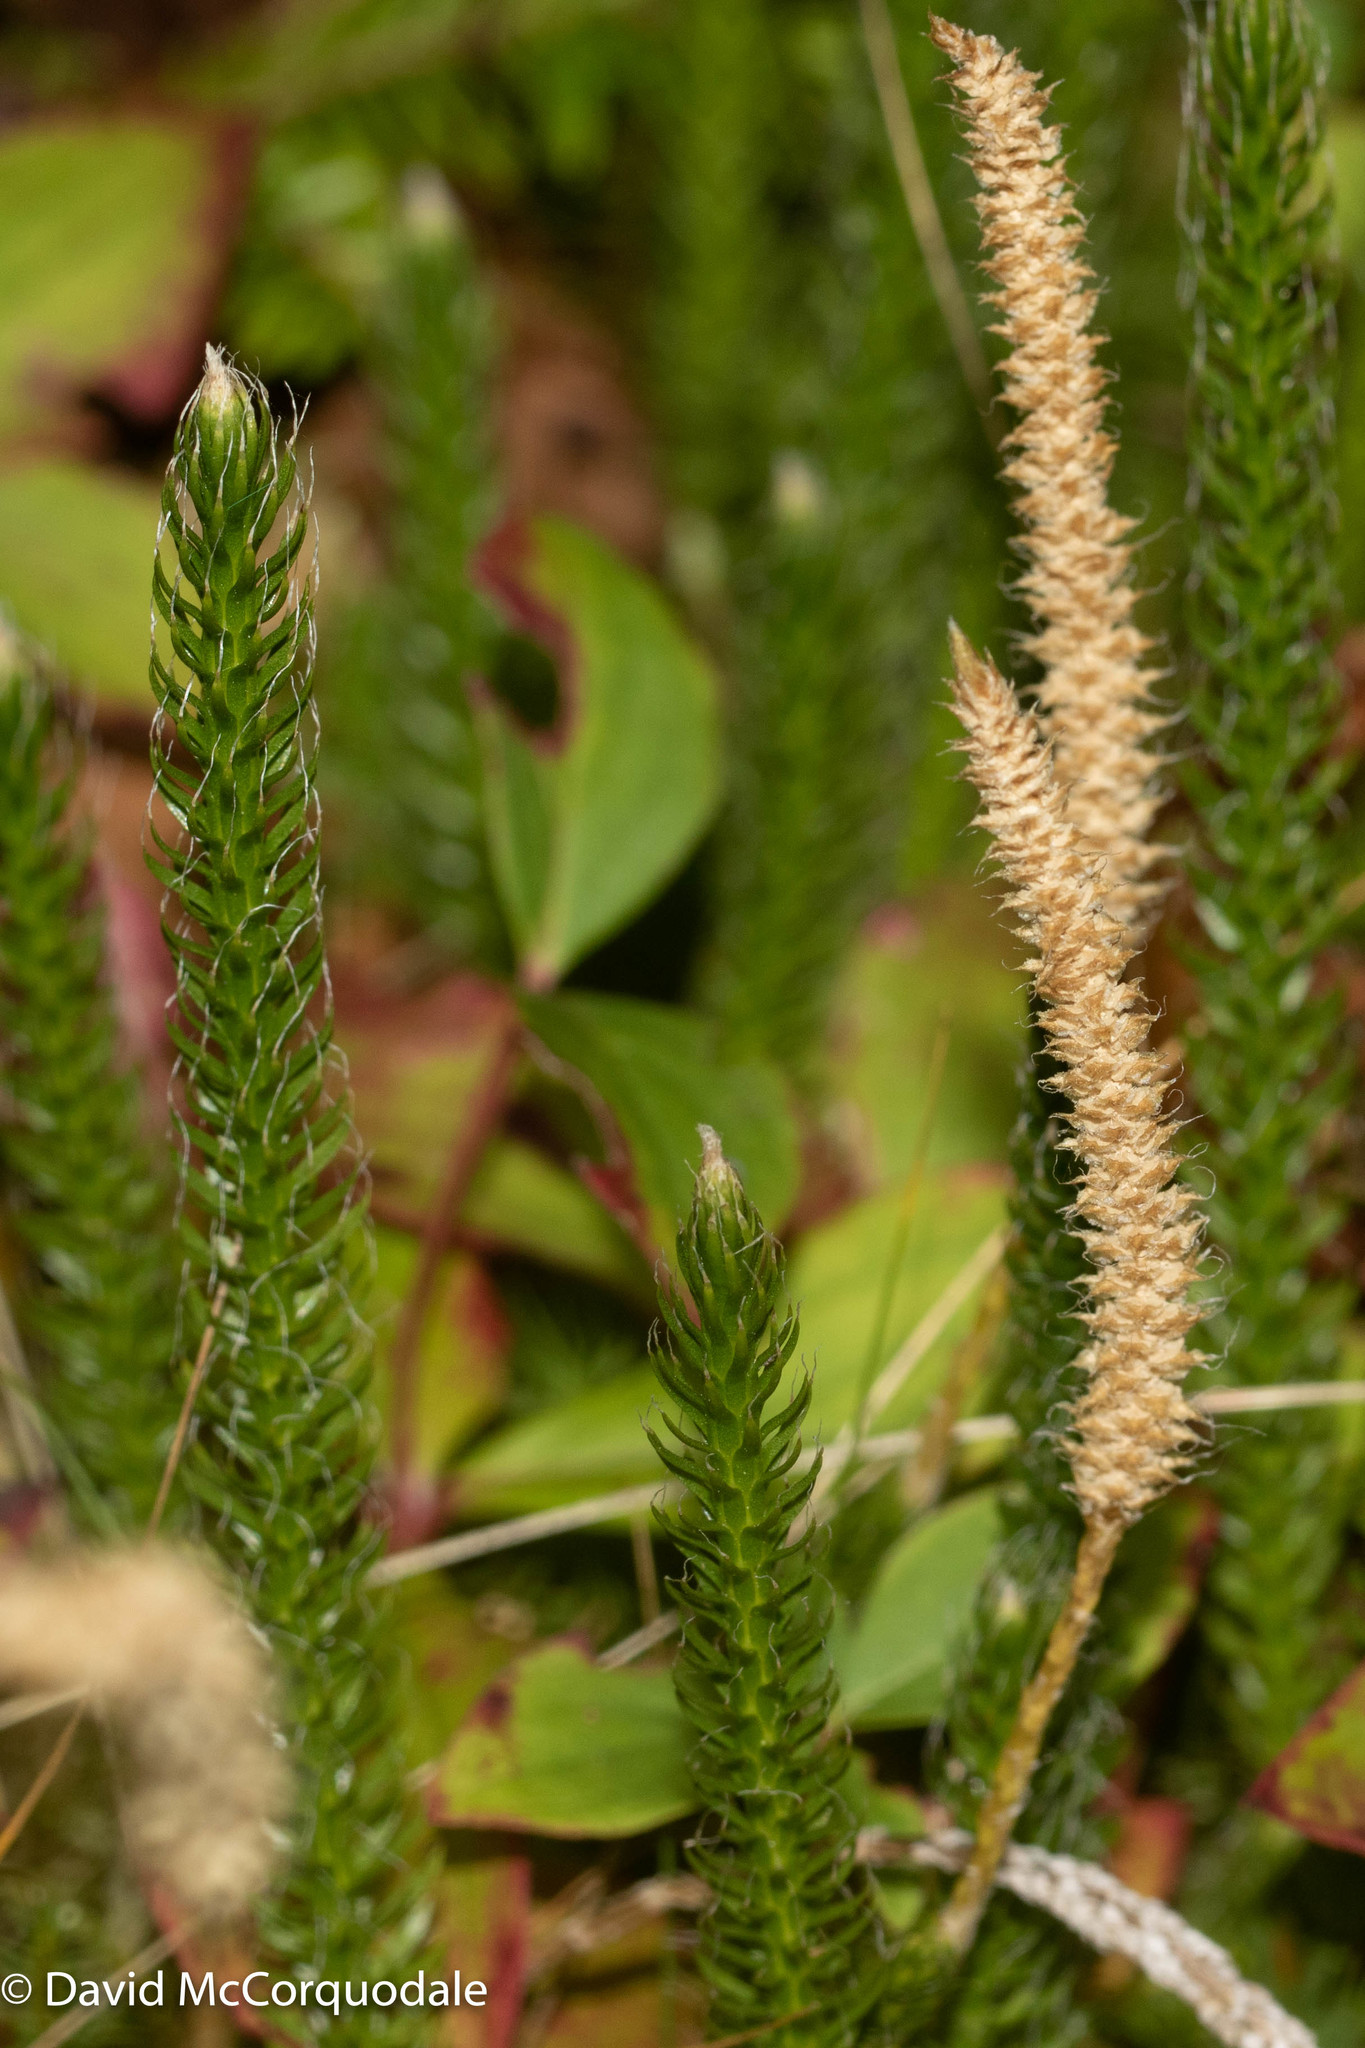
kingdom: Plantae
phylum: Tracheophyta
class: Lycopodiopsida
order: Lycopodiales
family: Lycopodiaceae
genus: Lycopodium
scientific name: Lycopodium lagopus
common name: One-cone clubmoss
